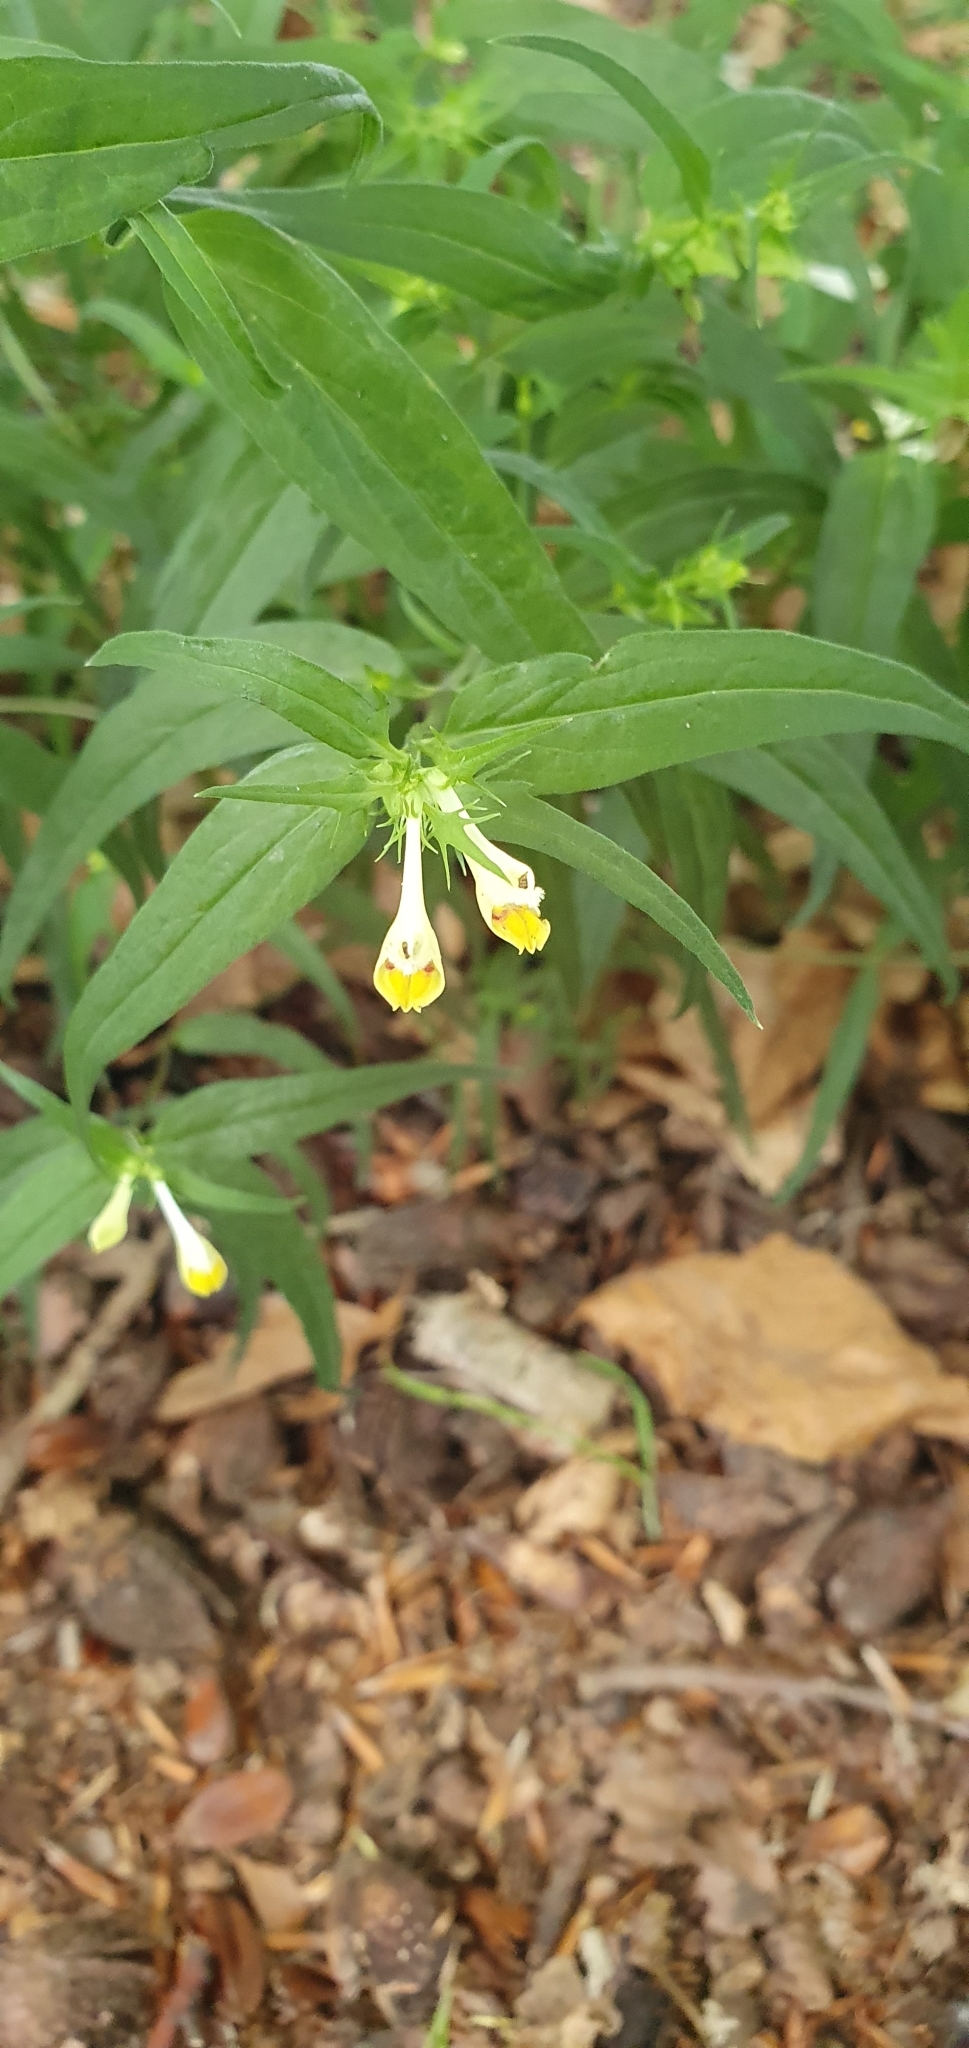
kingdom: Plantae
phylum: Tracheophyta
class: Magnoliopsida
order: Lamiales
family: Orobanchaceae
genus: Melampyrum
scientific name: Melampyrum pratense
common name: Common cow-wheat
